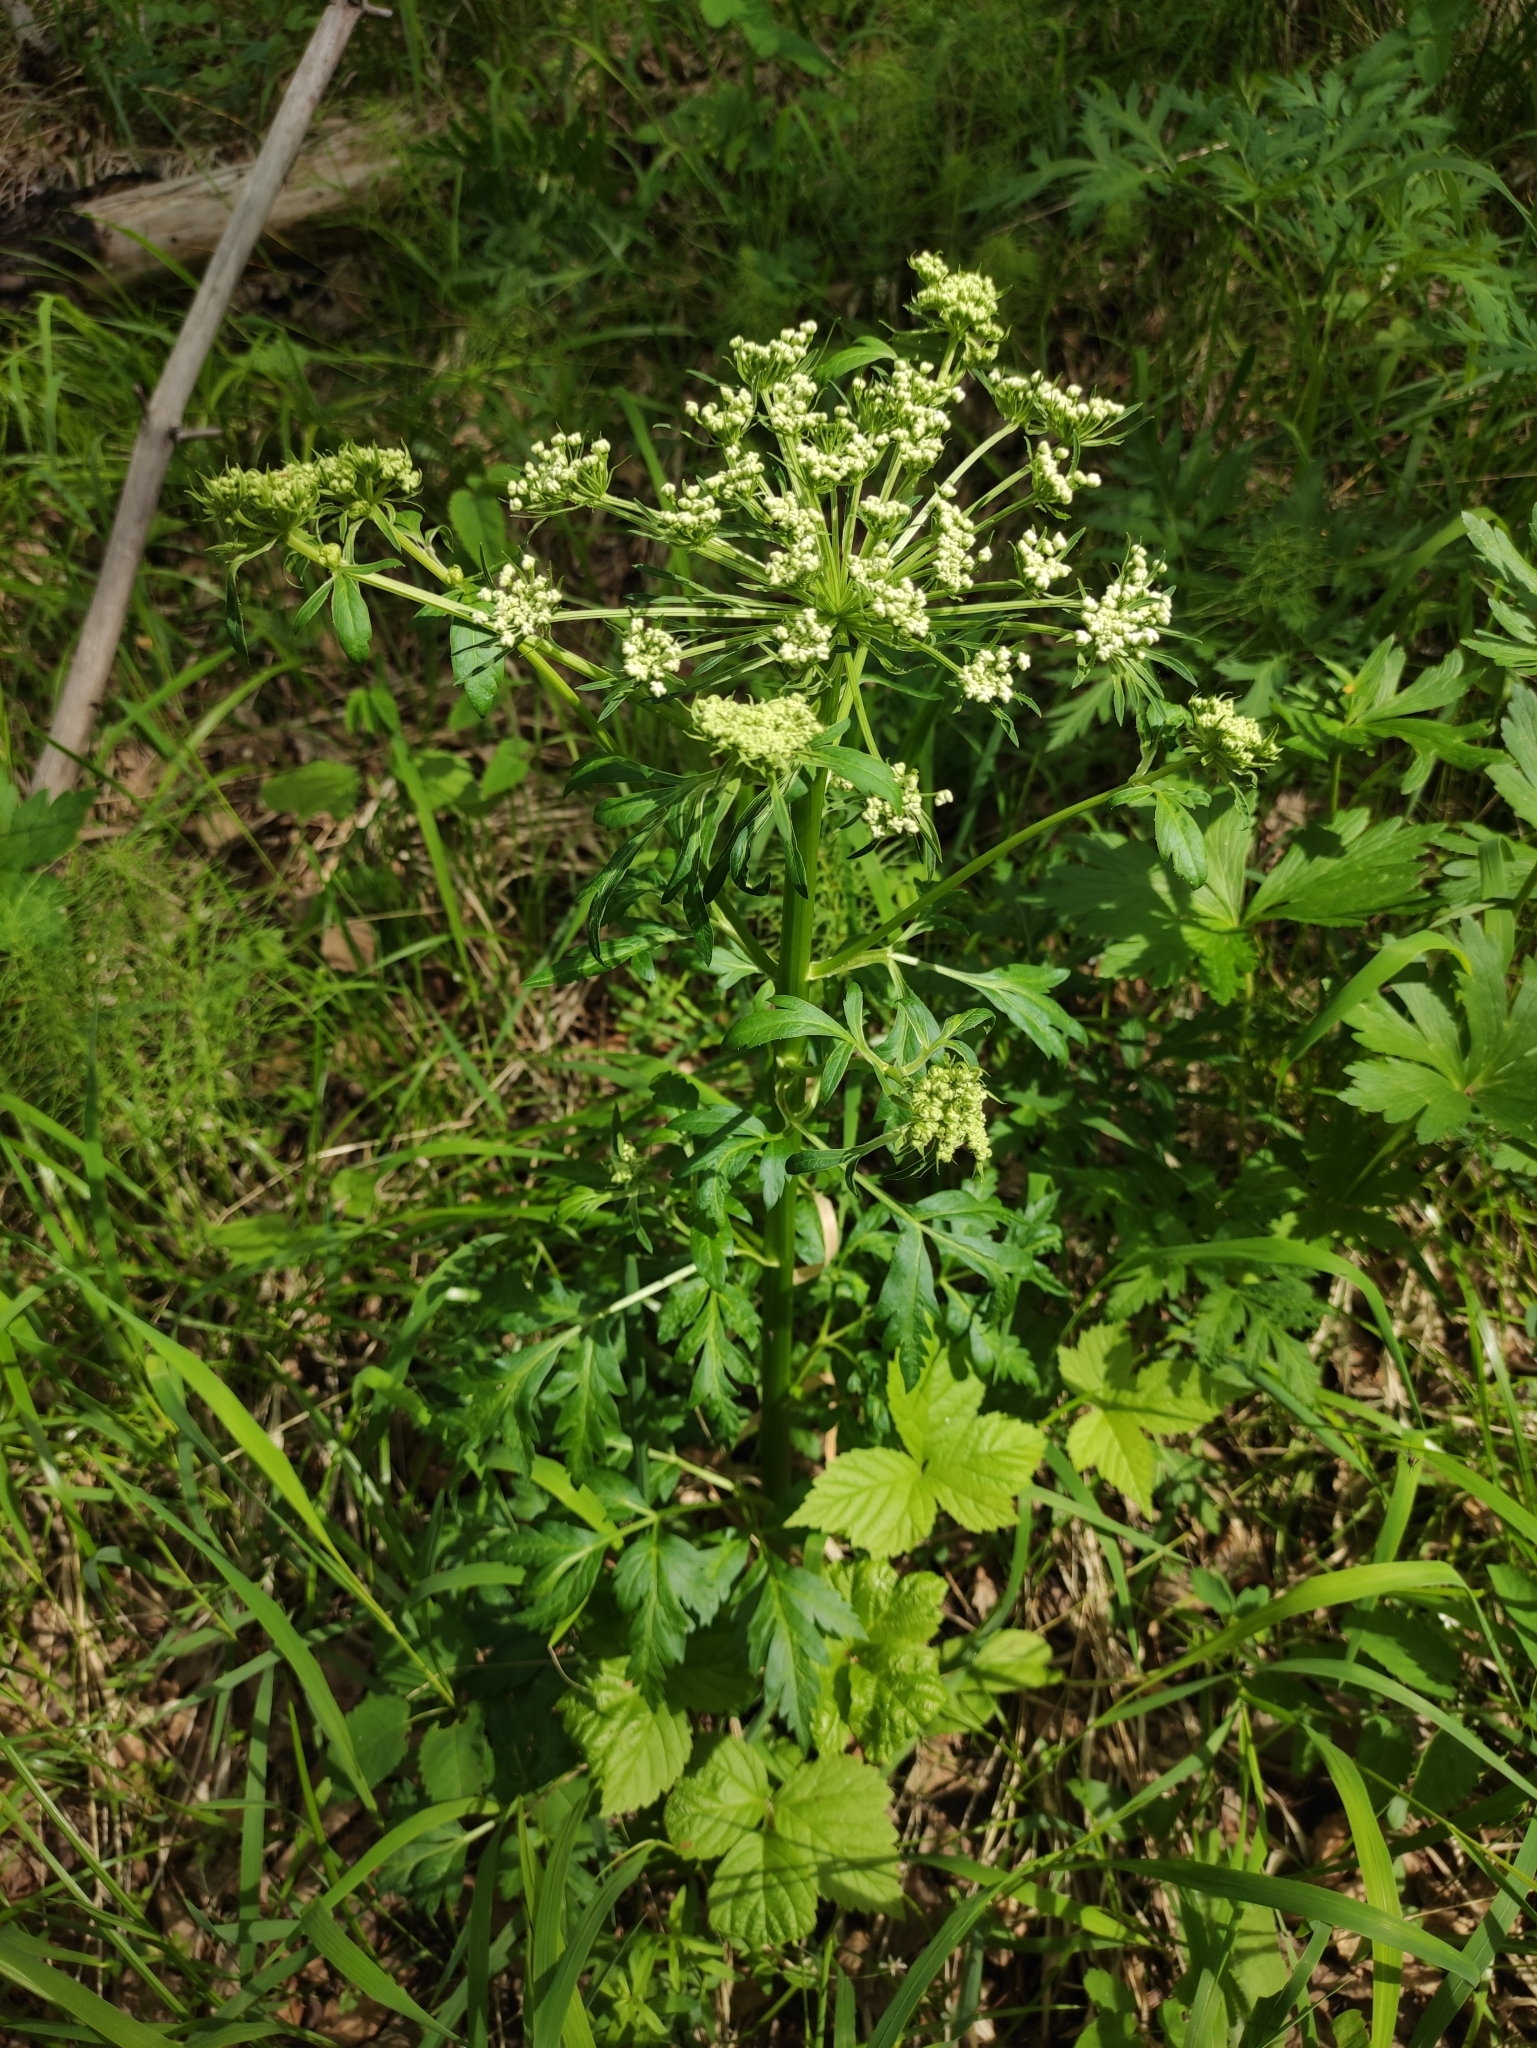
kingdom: Plantae
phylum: Tracheophyta
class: Magnoliopsida
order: Apiales
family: Apiaceae
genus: Pleurospermum
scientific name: Pleurospermum uralense
